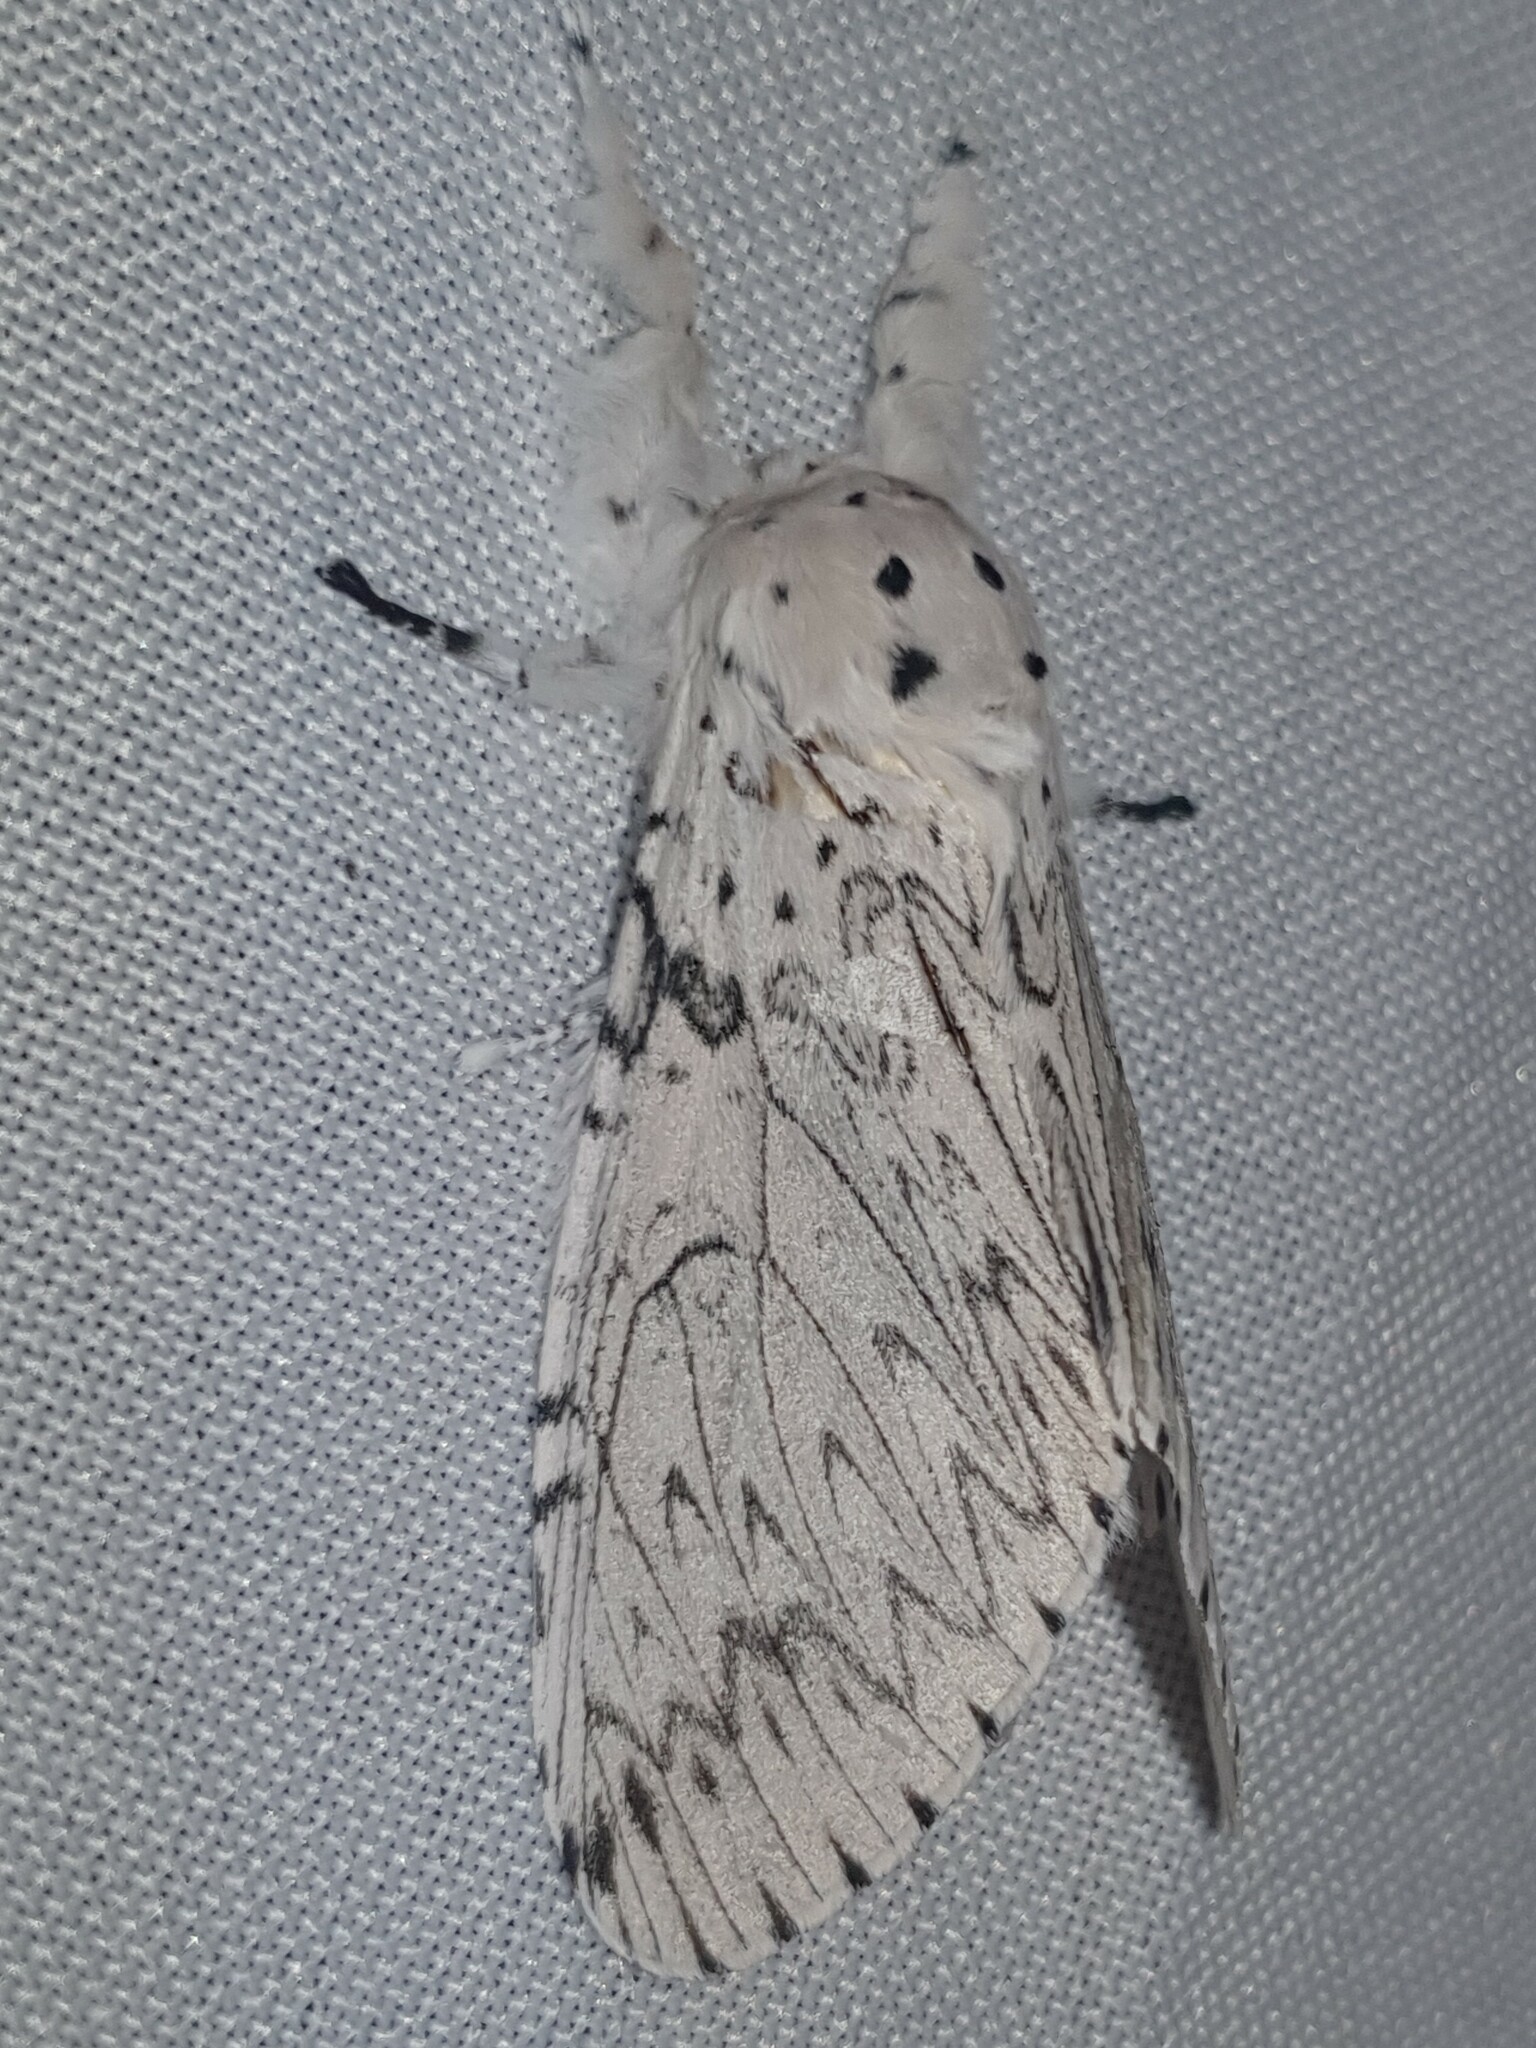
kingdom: Animalia
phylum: Arthropoda
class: Insecta
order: Lepidoptera
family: Notodontidae
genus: Cerura
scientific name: Cerura erminea
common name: Lesser puss moth
